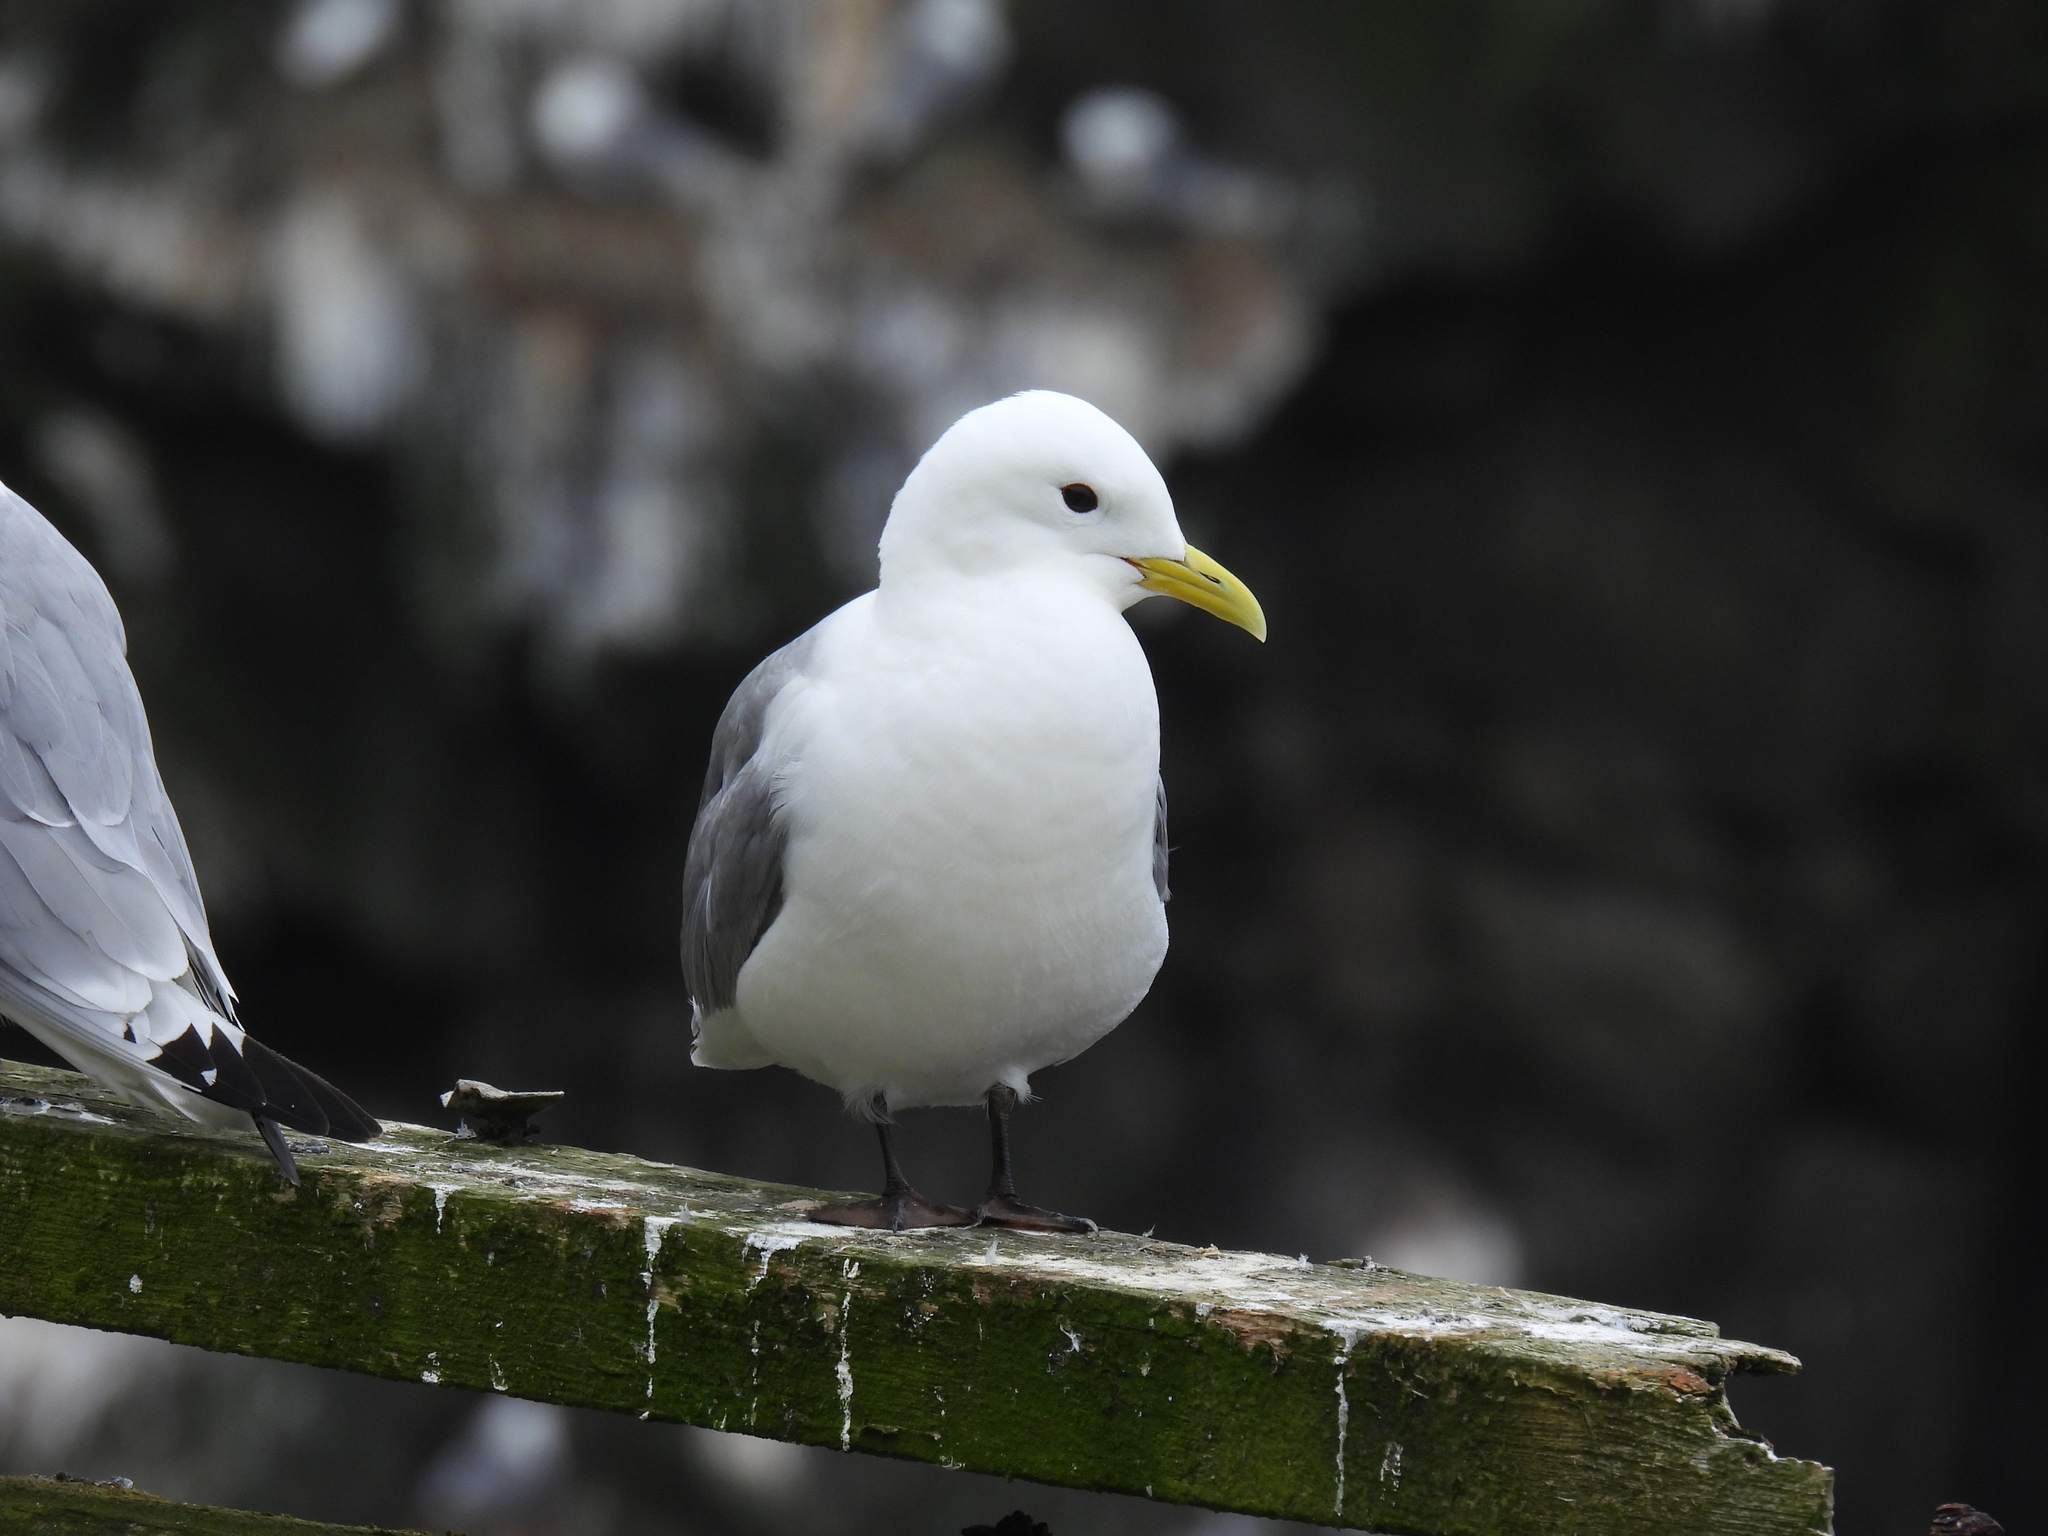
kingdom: Animalia
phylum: Chordata
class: Aves
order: Charadriiformes
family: Laridae
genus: Rissa
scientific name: Rissa tridactyla
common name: Black-legged kittiwake
